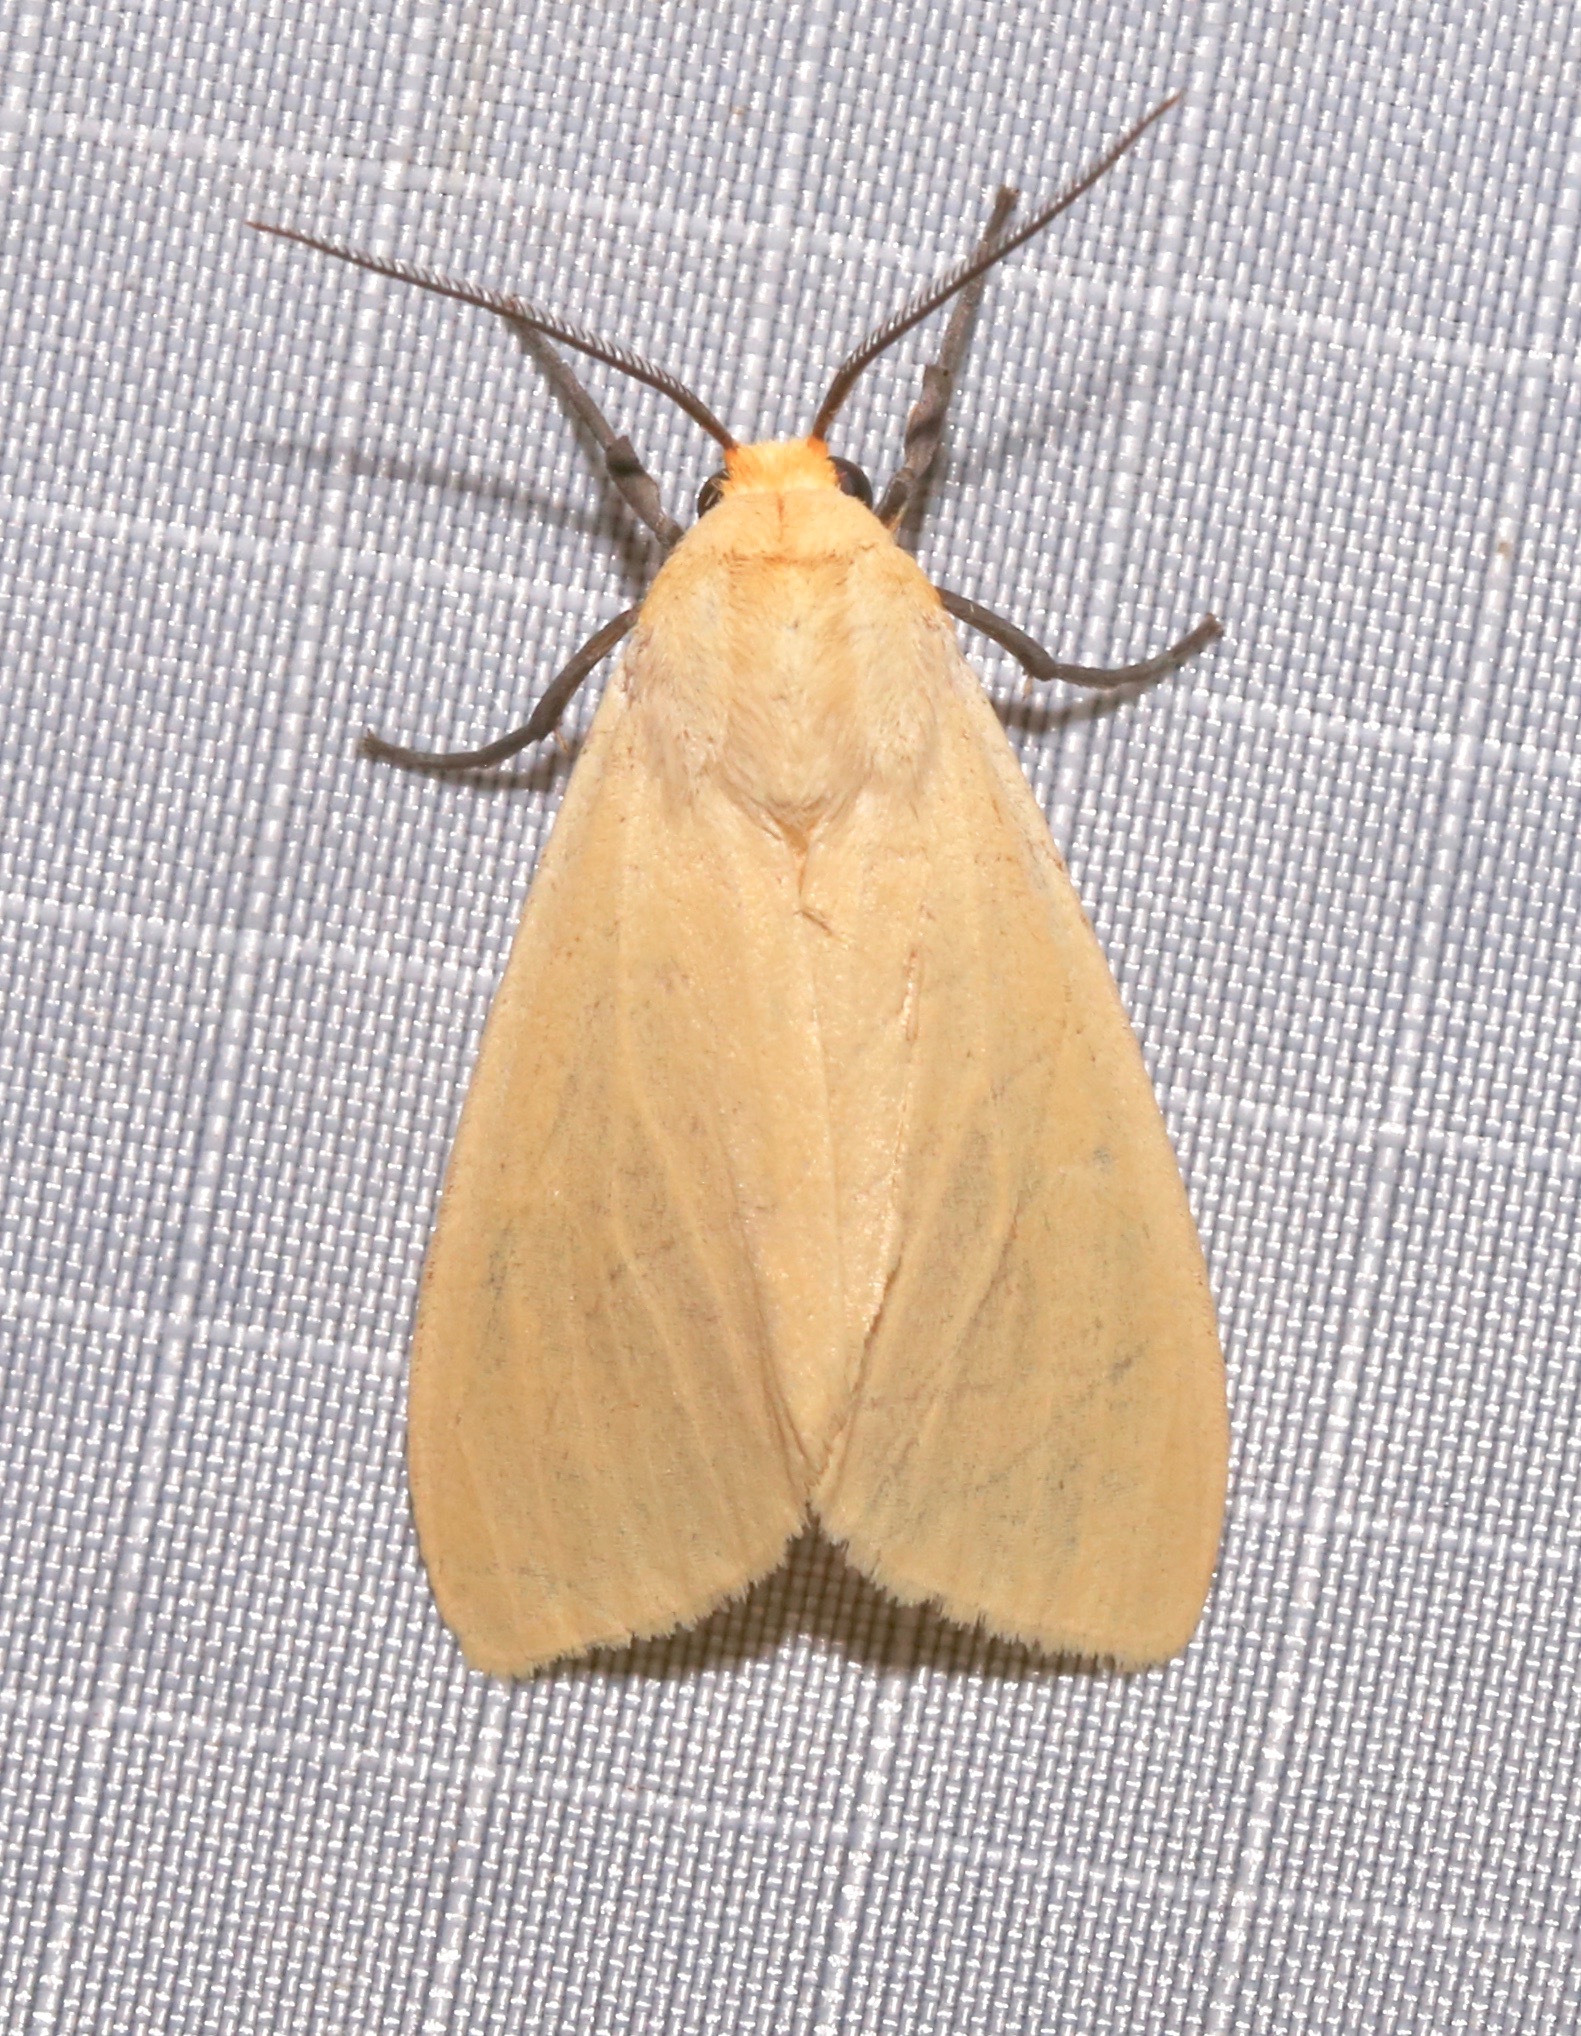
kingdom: Animalia
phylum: Arthropoda
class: Insecta
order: Lepidoptera
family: Erebidae
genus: Pareuchaetes
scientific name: Pareuchaetes insulata
